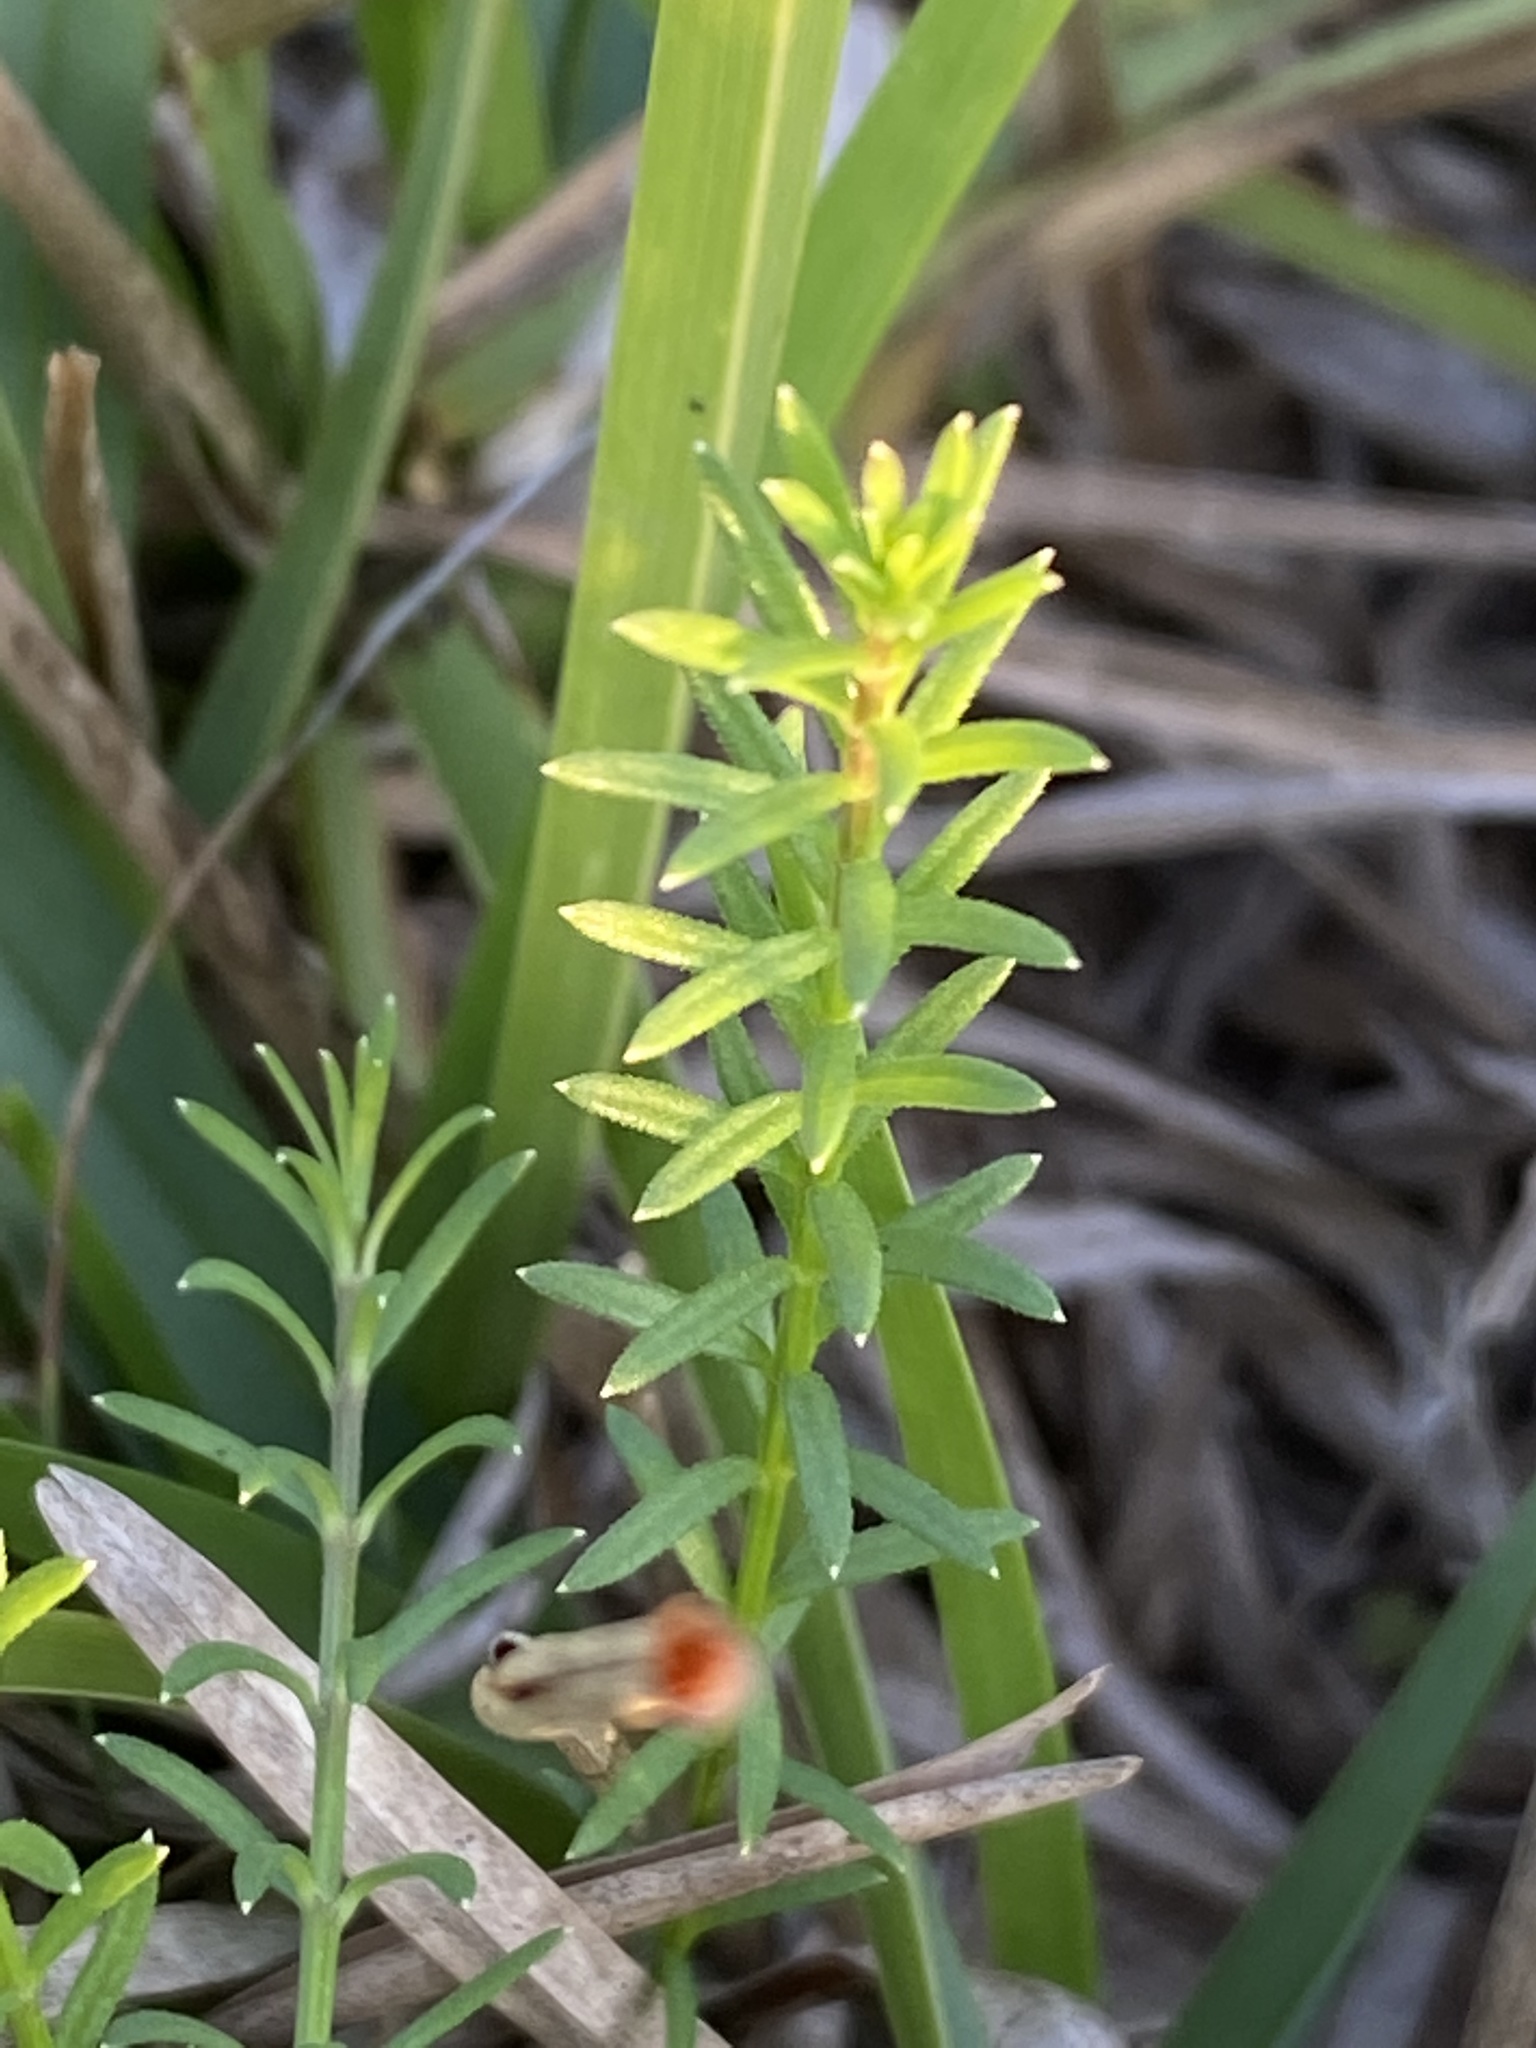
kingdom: Plantae
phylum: Tracheophyta
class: Magnoliopsida
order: Asterales
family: Campanulaceae
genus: Monopsis
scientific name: Monopsis unidentata
